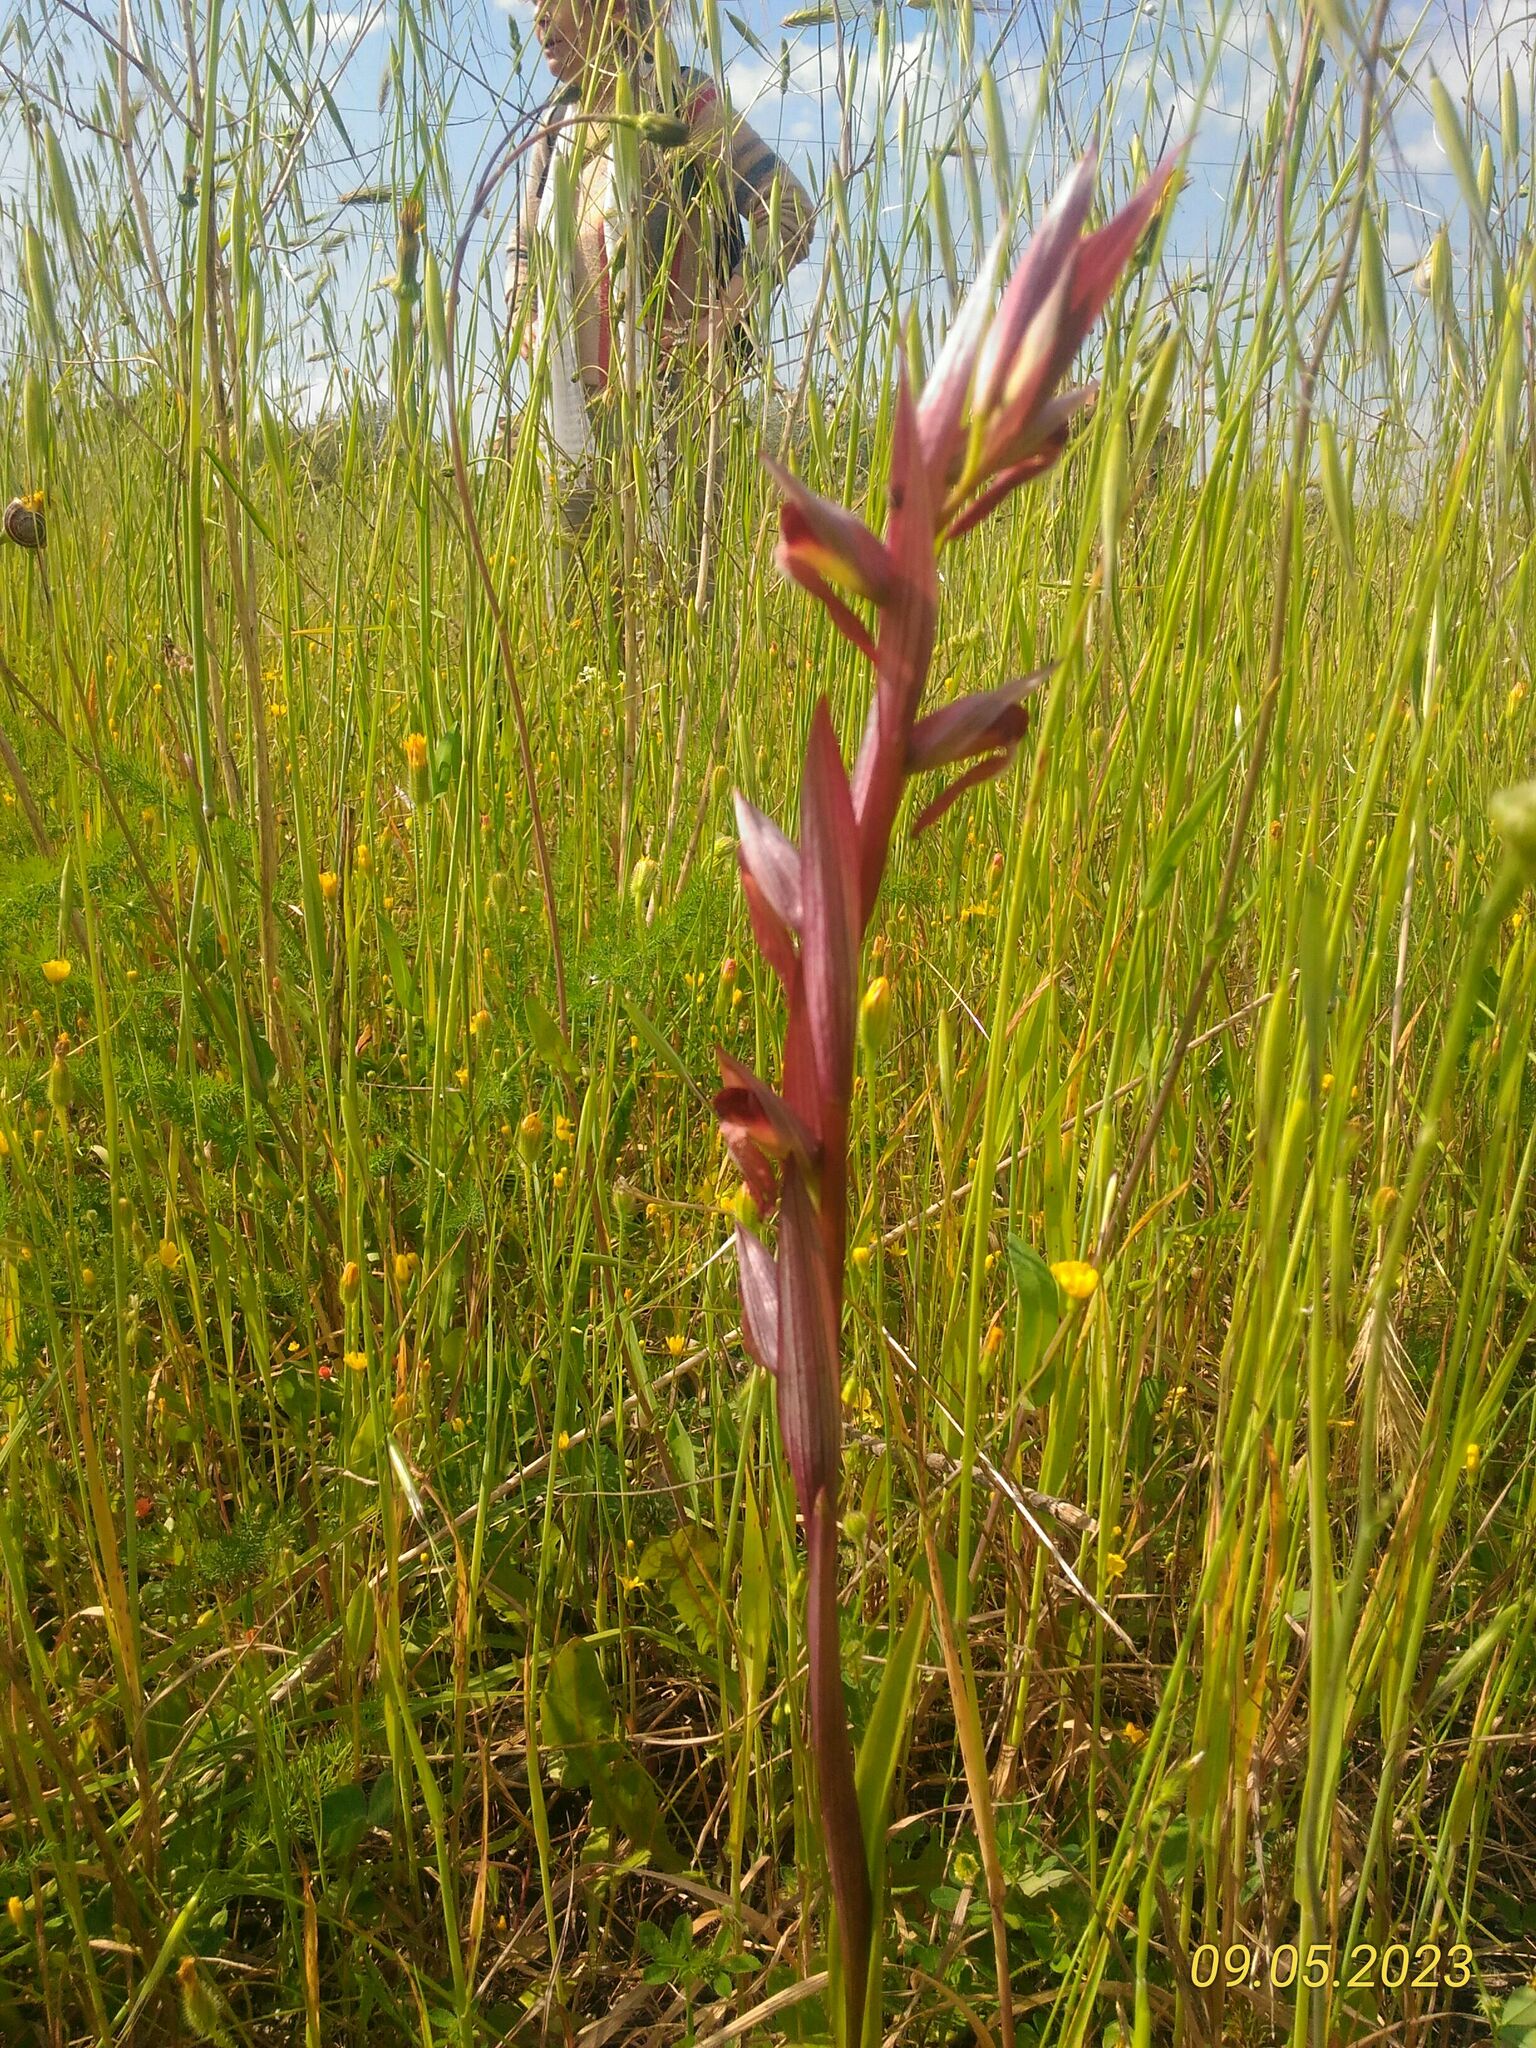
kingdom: Plantae
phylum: Tracheophyta
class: Liliopsida
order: Asparagales
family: Orchidaceae
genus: Serapias
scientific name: Serapias vomeracea
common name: Long-lipped tongue-orchid
